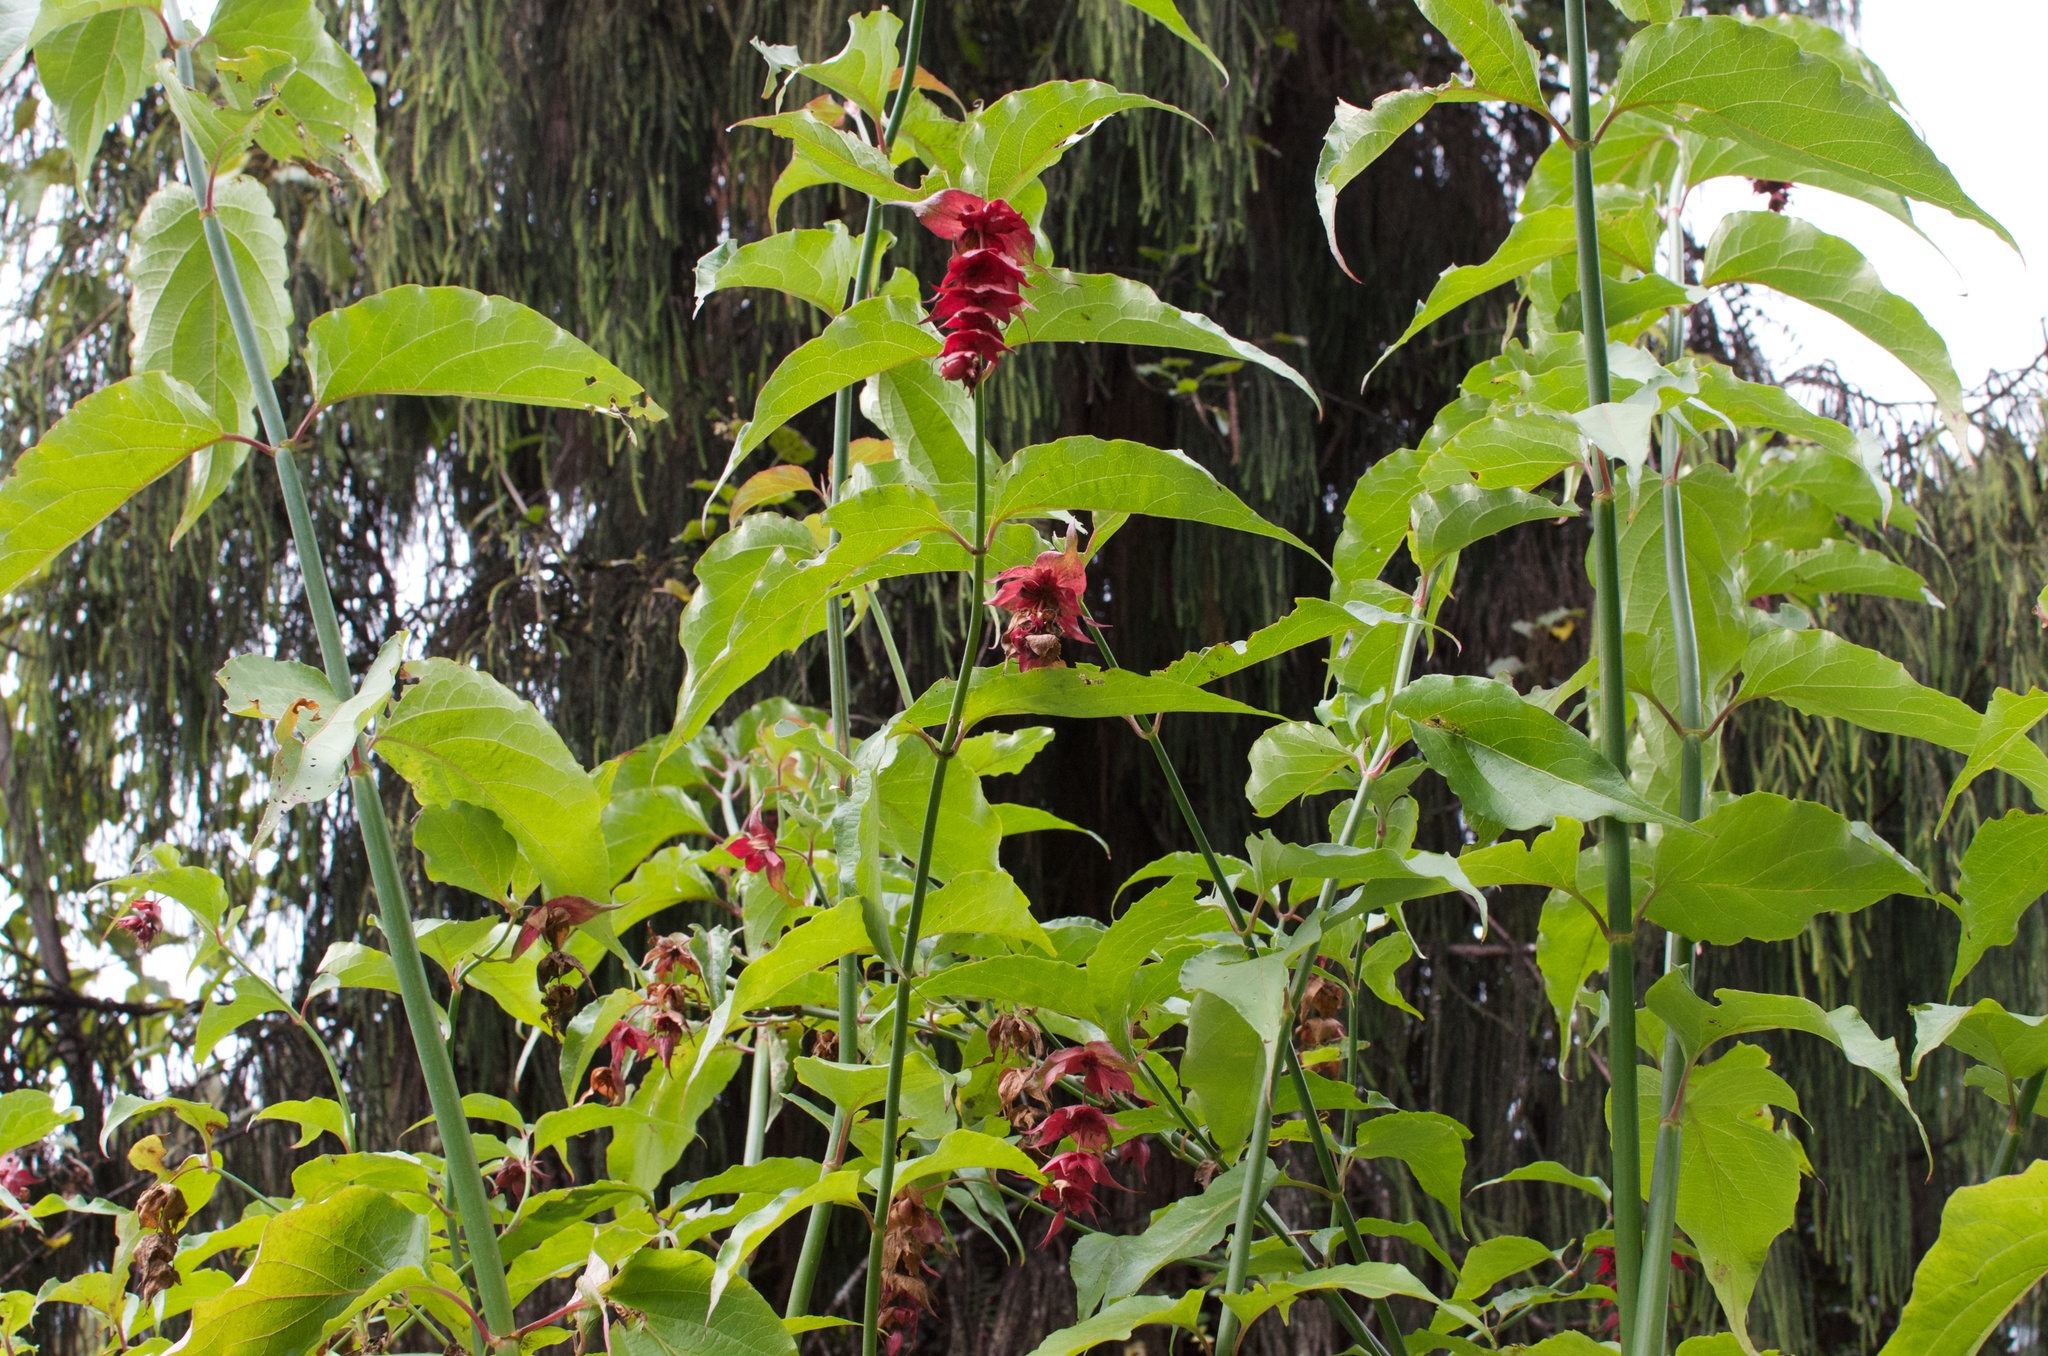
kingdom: Plantae
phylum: Tracheophyta
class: Magnoliopsida
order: Dipsacales
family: Caprifoliaceae
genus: Leycesteria
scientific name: Leycesteria formosa
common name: Himalayan honeysuckle
